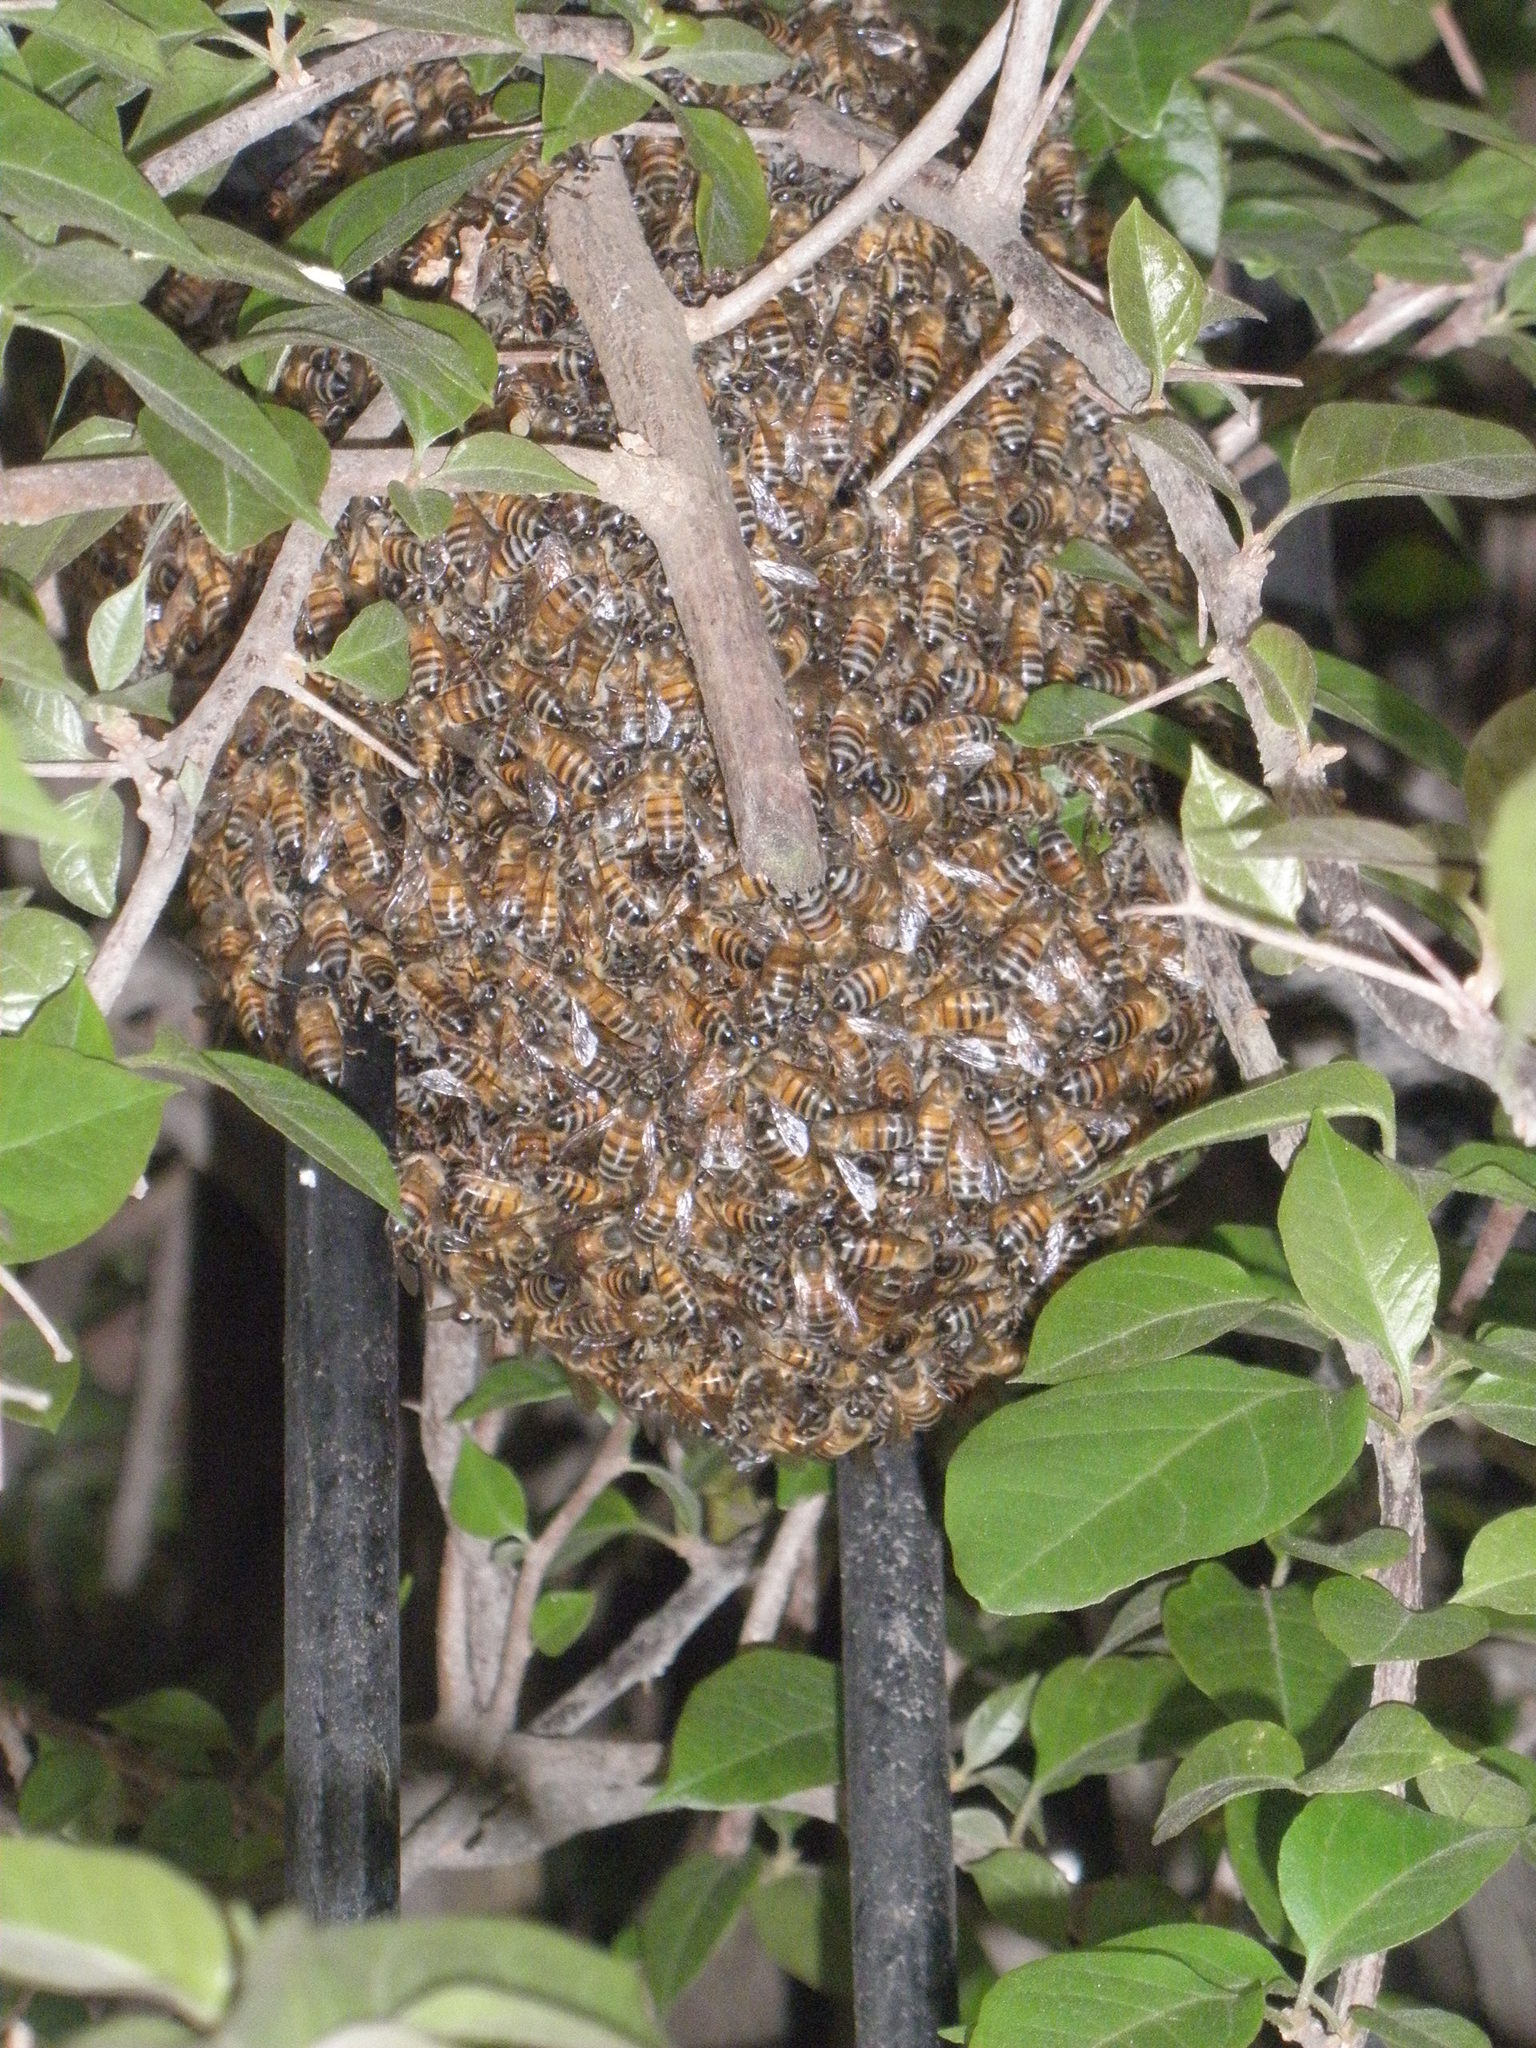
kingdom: Animalia
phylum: Arthropoda
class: Insecta
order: Hymenoptera
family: Apidae
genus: Apis
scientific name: Apis mellifera
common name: Honey bee
